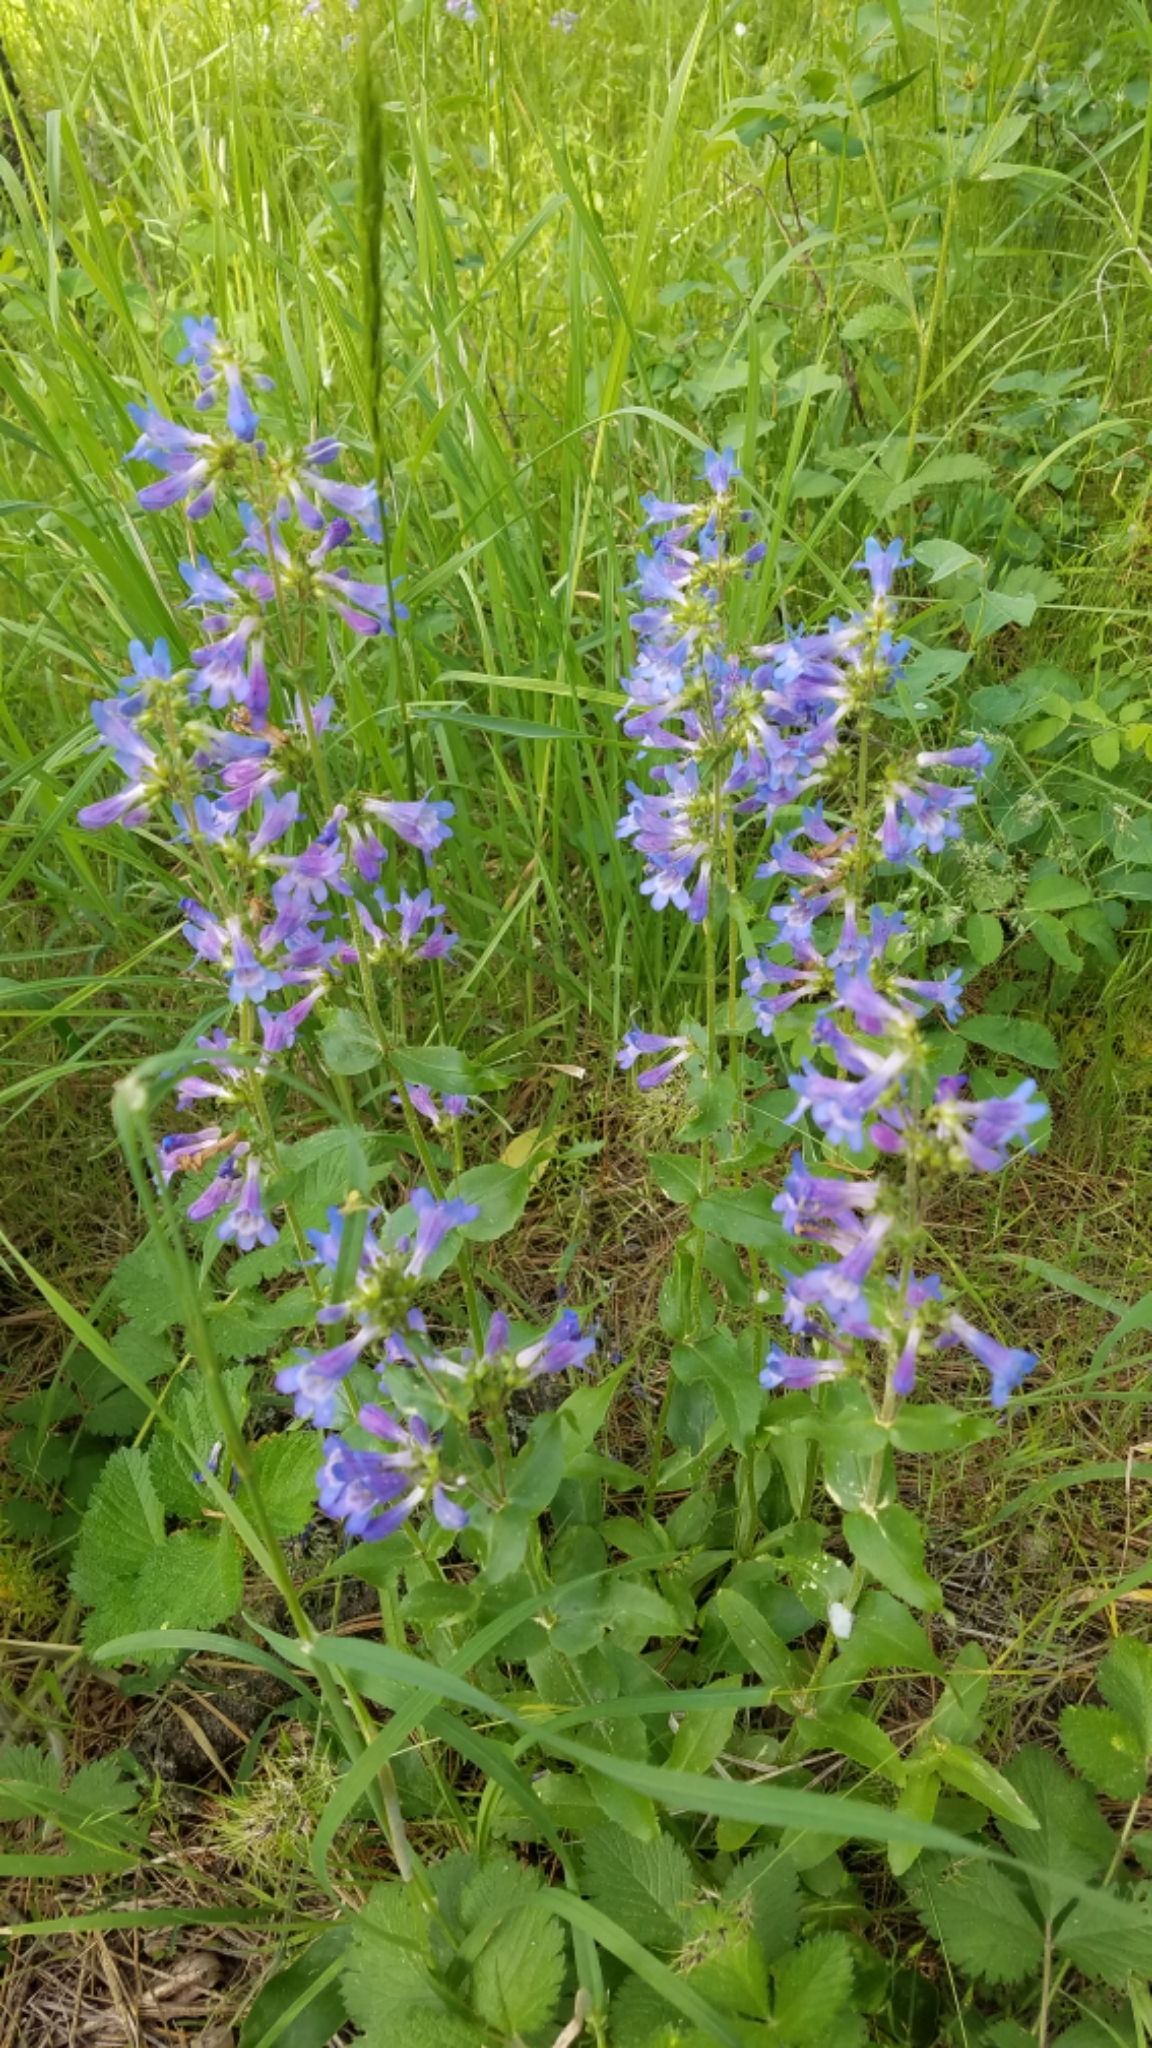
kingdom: Plantae
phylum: Tracheophyta
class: Magnoliopsida
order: Lamiales
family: Plantaginaceae
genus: Penstemon
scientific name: Penstemon wilcoxii
